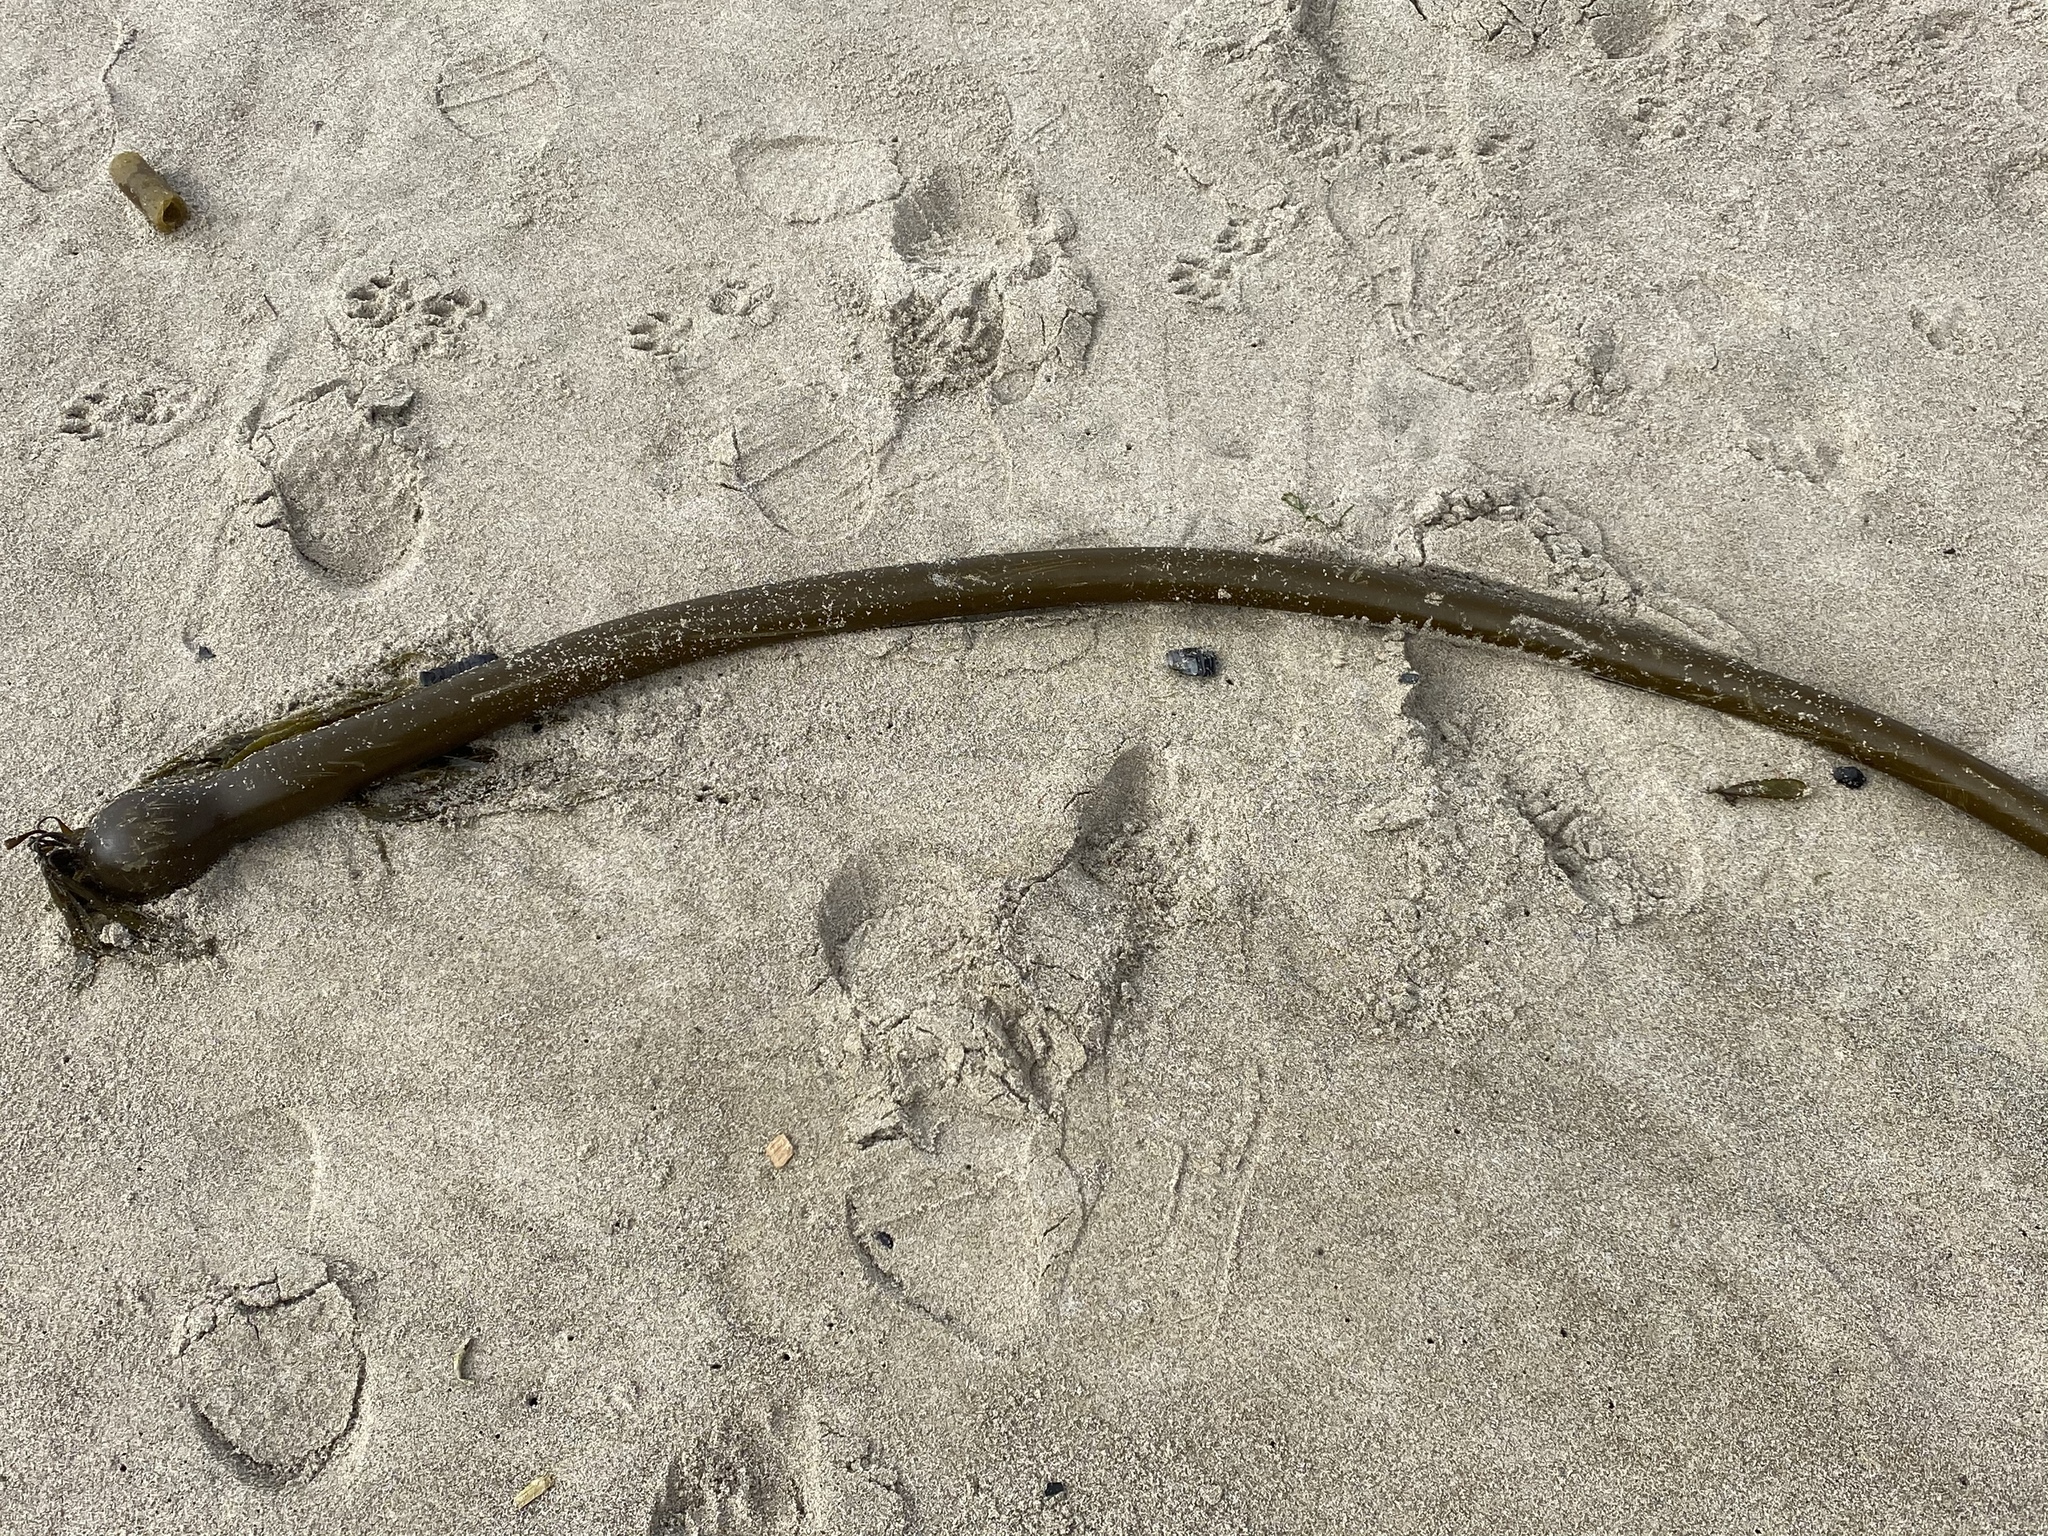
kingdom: Chromista
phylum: Ochrophyta
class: Phaeophyceae
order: Laminariales
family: Laminariaceae
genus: Nereocystis
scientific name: Nereocystis luetkeana
